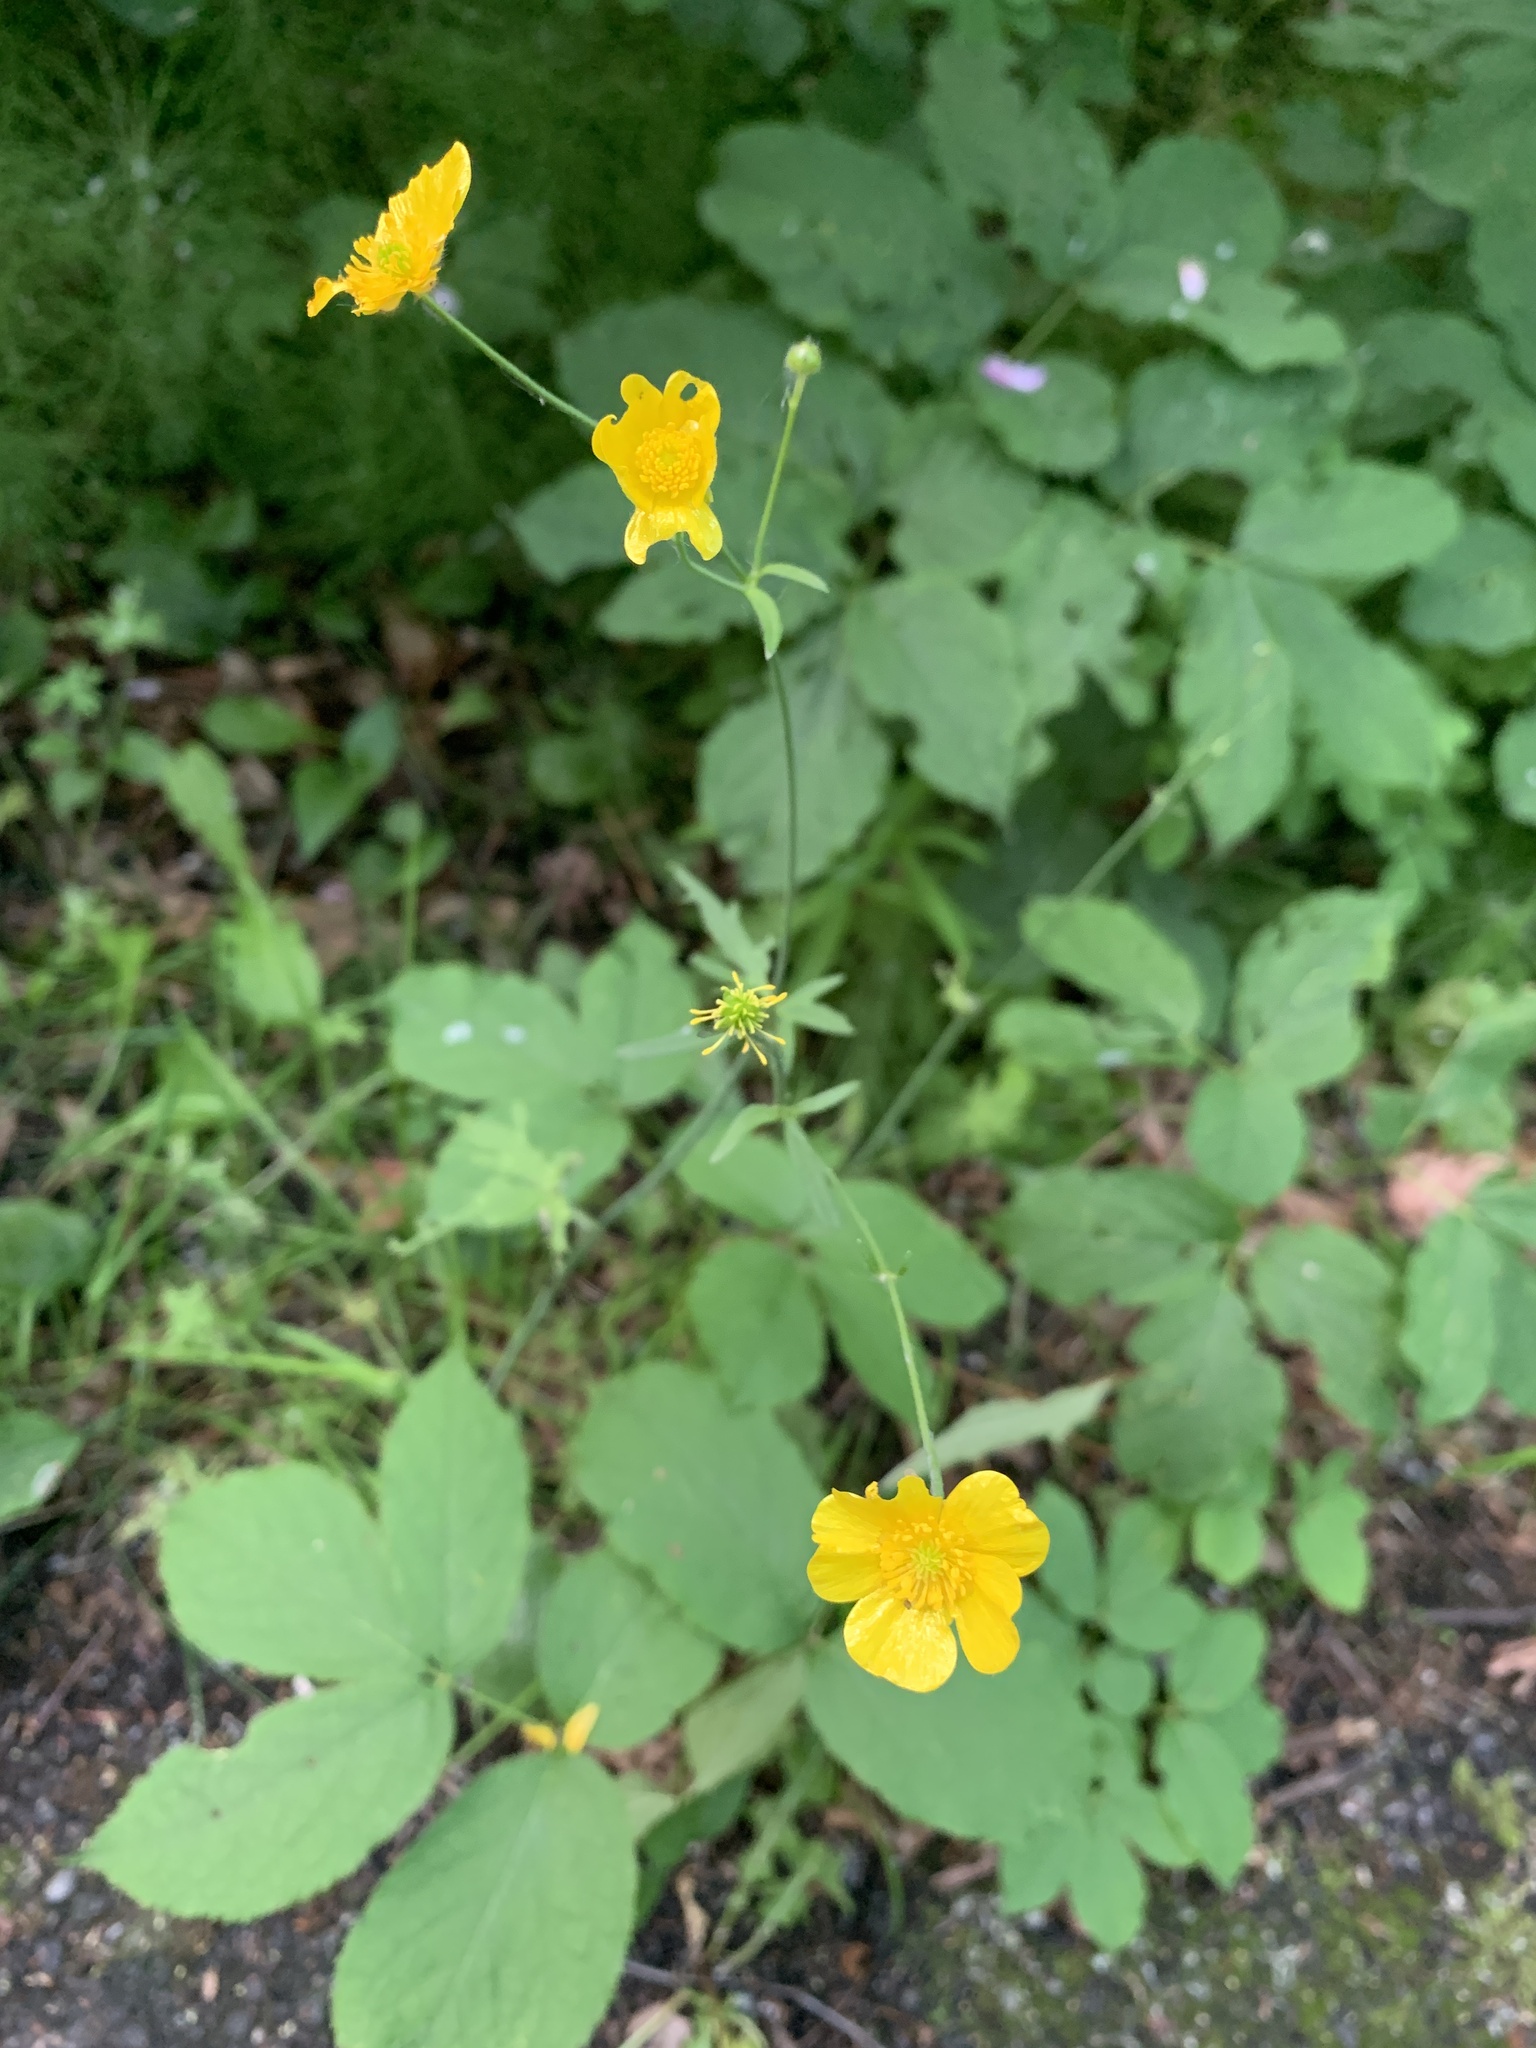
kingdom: Plantae
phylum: Tracheophyta
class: Magnoliopsida
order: Ranunculales
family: Ranunculaceae
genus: Ranunculus
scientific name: Ranunculus acris
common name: Meadow buttercup
